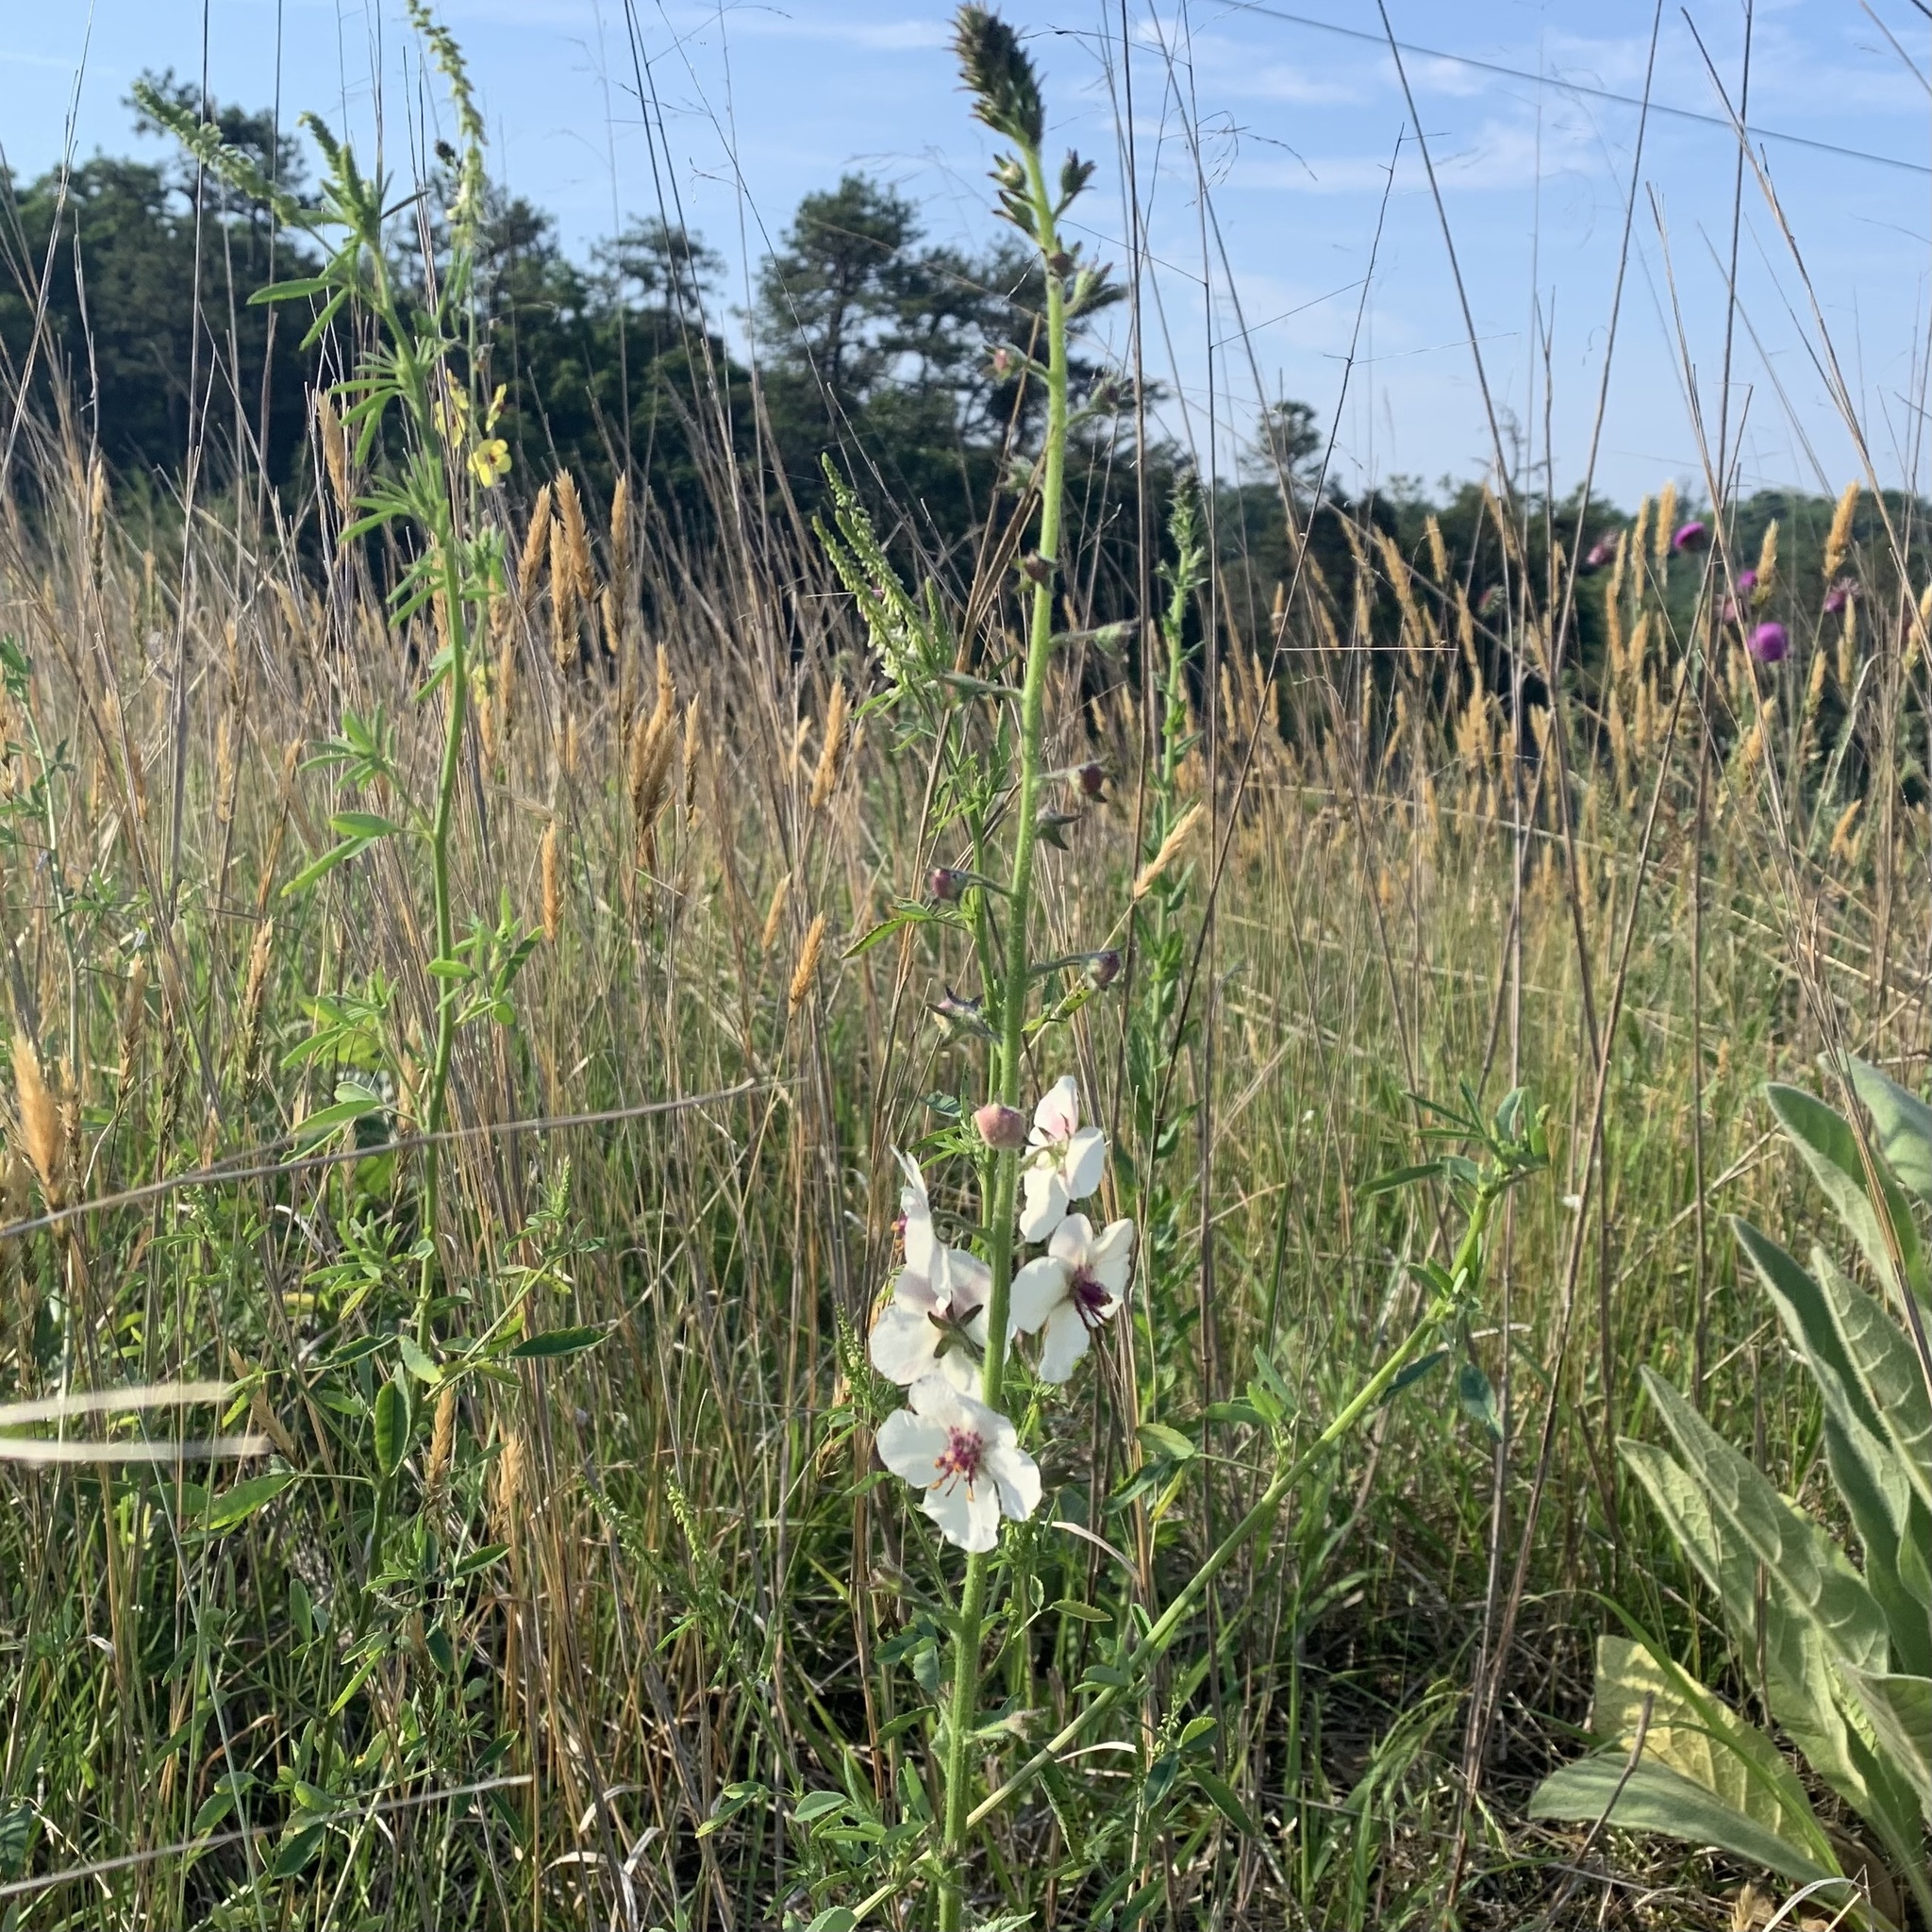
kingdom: Plantae
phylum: Tracheophyta
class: Magnoliopsida
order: Lamiales
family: Scrophulariaceae
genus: Verbascum
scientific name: Verbascum blattaria
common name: Moth mullein
